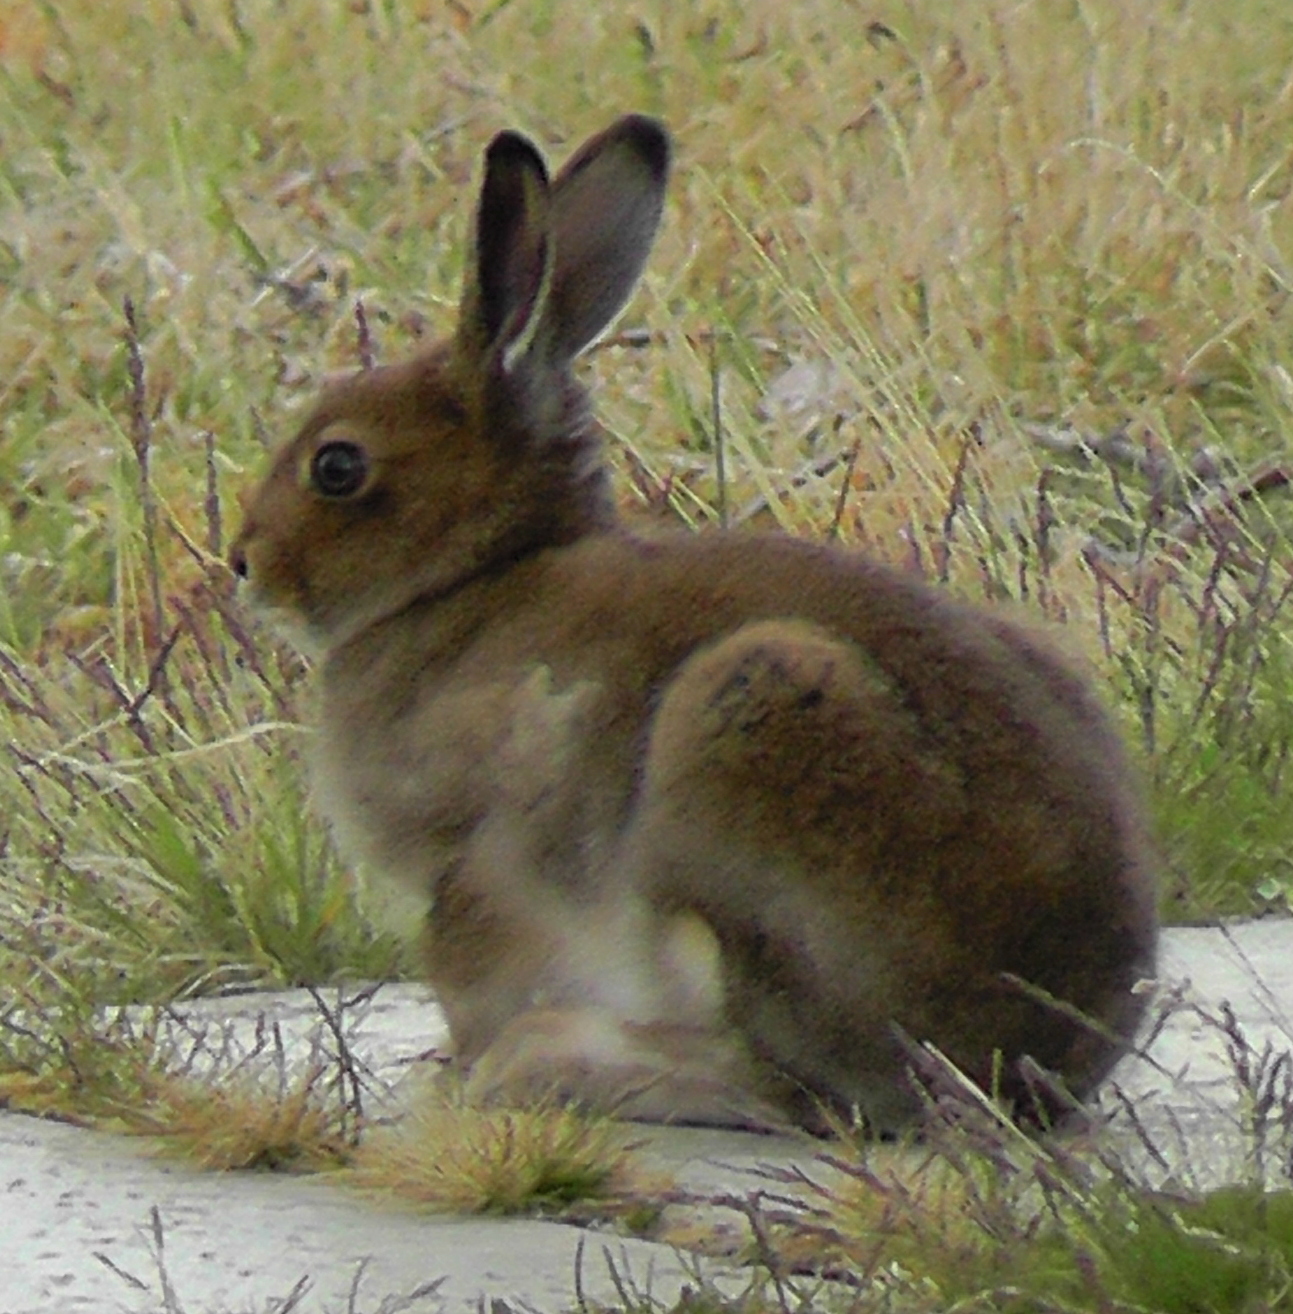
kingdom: Animalia
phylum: Chordata
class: Mammalia
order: Lagomorpha
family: Leporidae
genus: Lepus
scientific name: Lepus timidus
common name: Mountain hare
